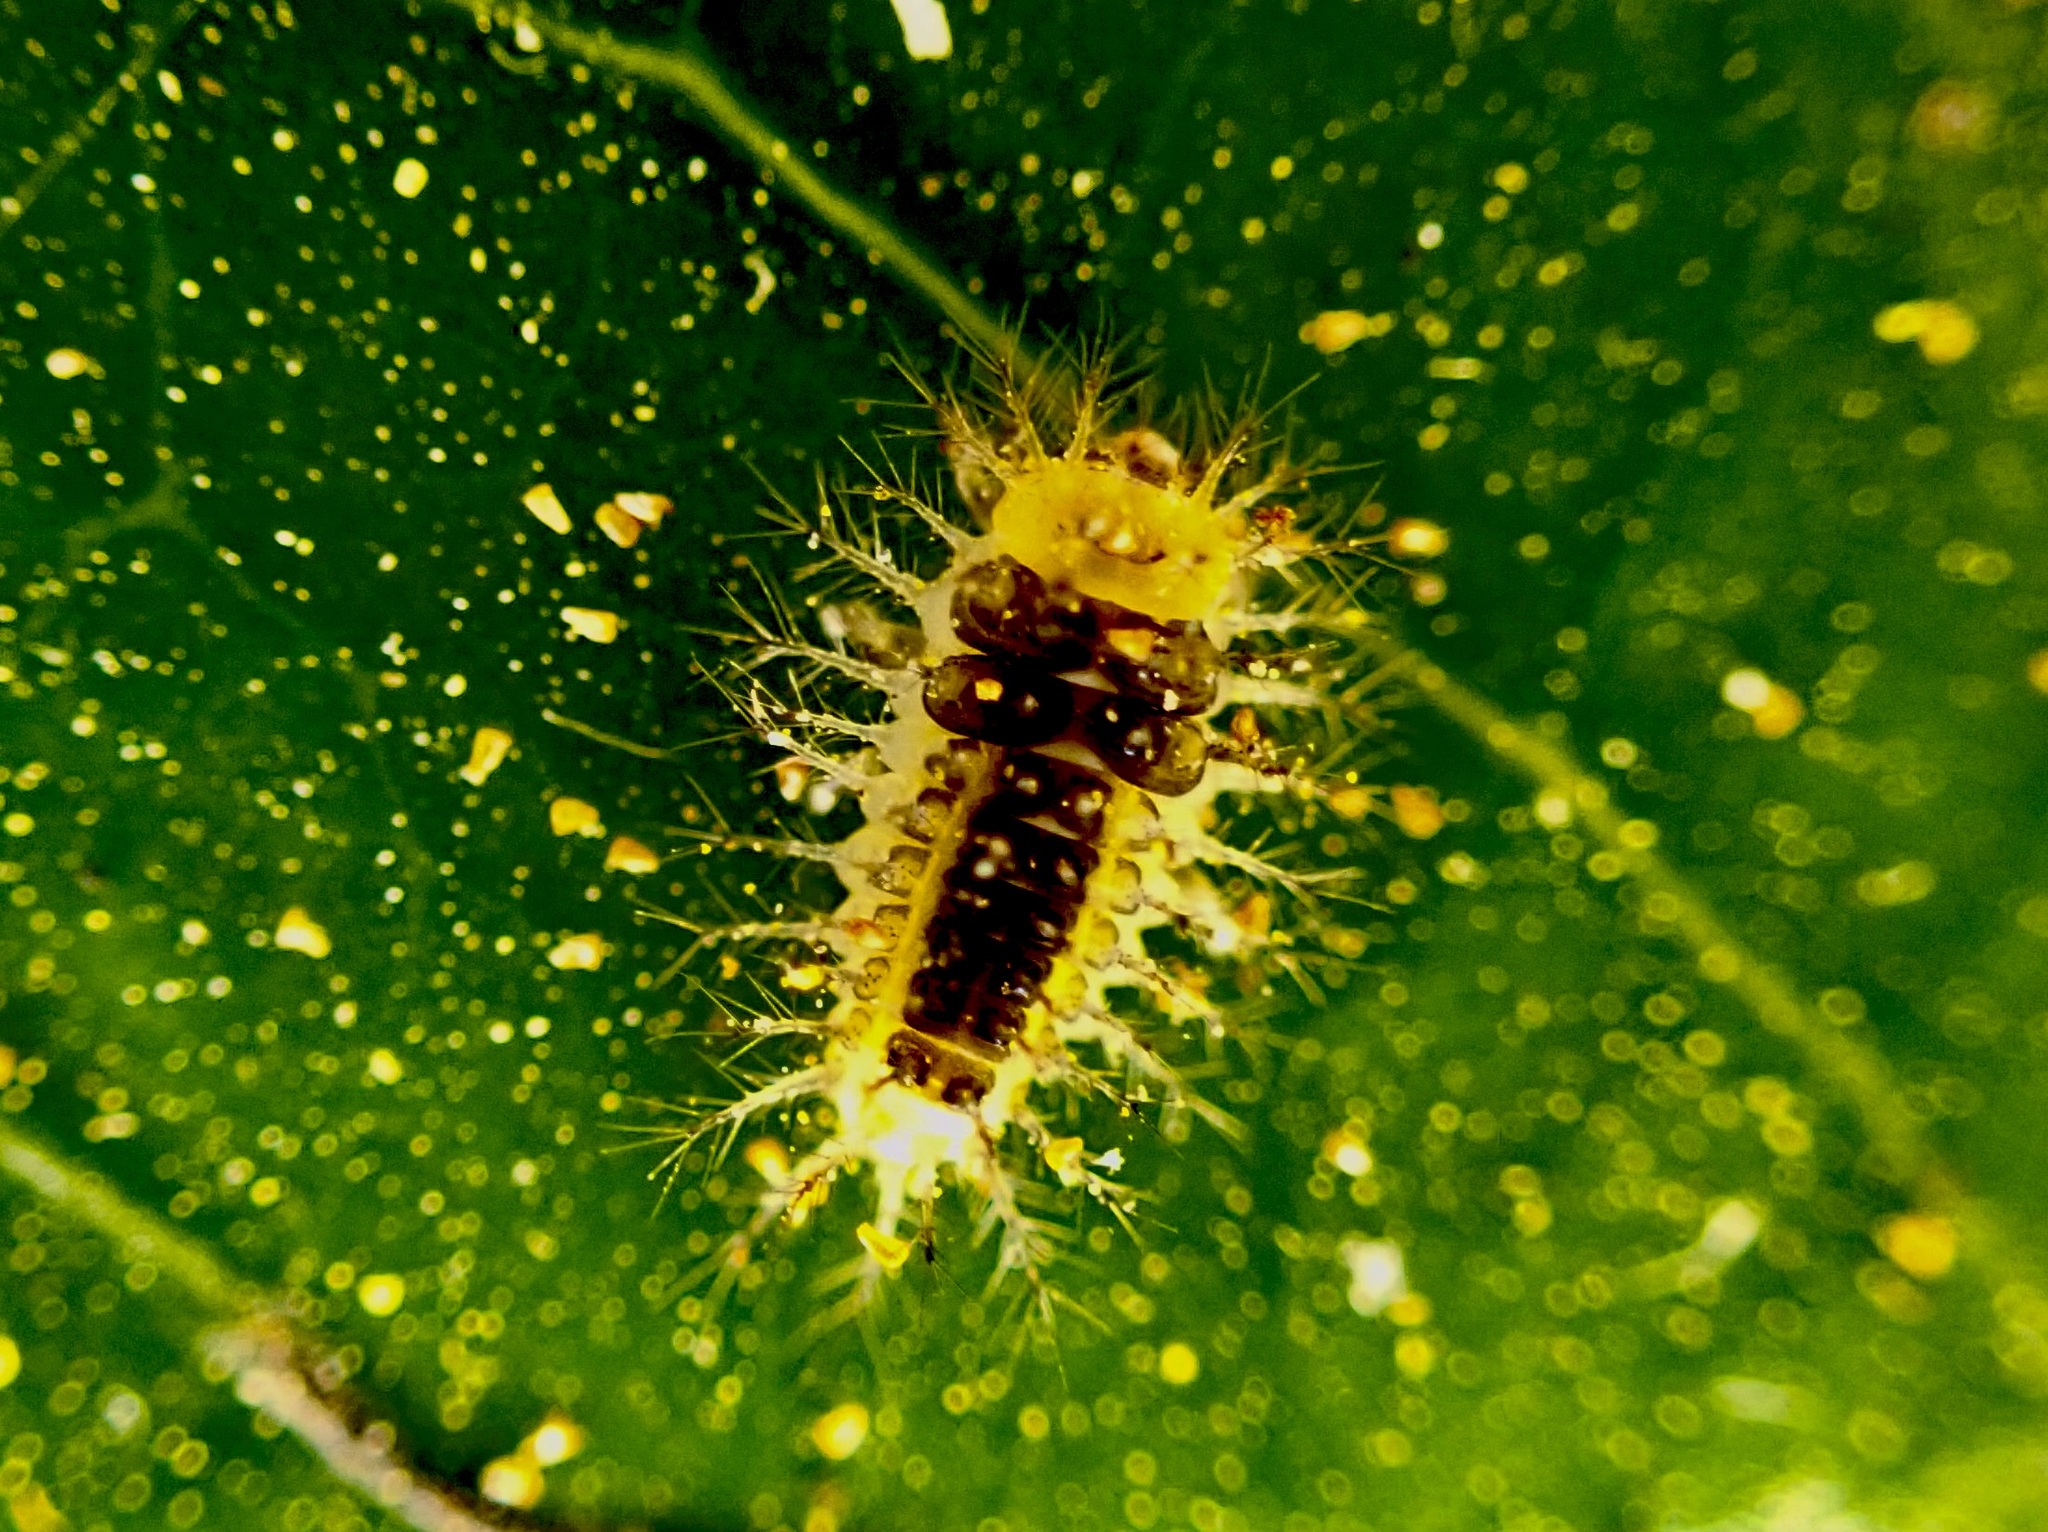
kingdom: Animalia
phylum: Arthropoda
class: Insecta
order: Coleoptera
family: Coccinellidae
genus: Halmus
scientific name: Halmus chalybeus
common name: Steel blue ladybird beetle
